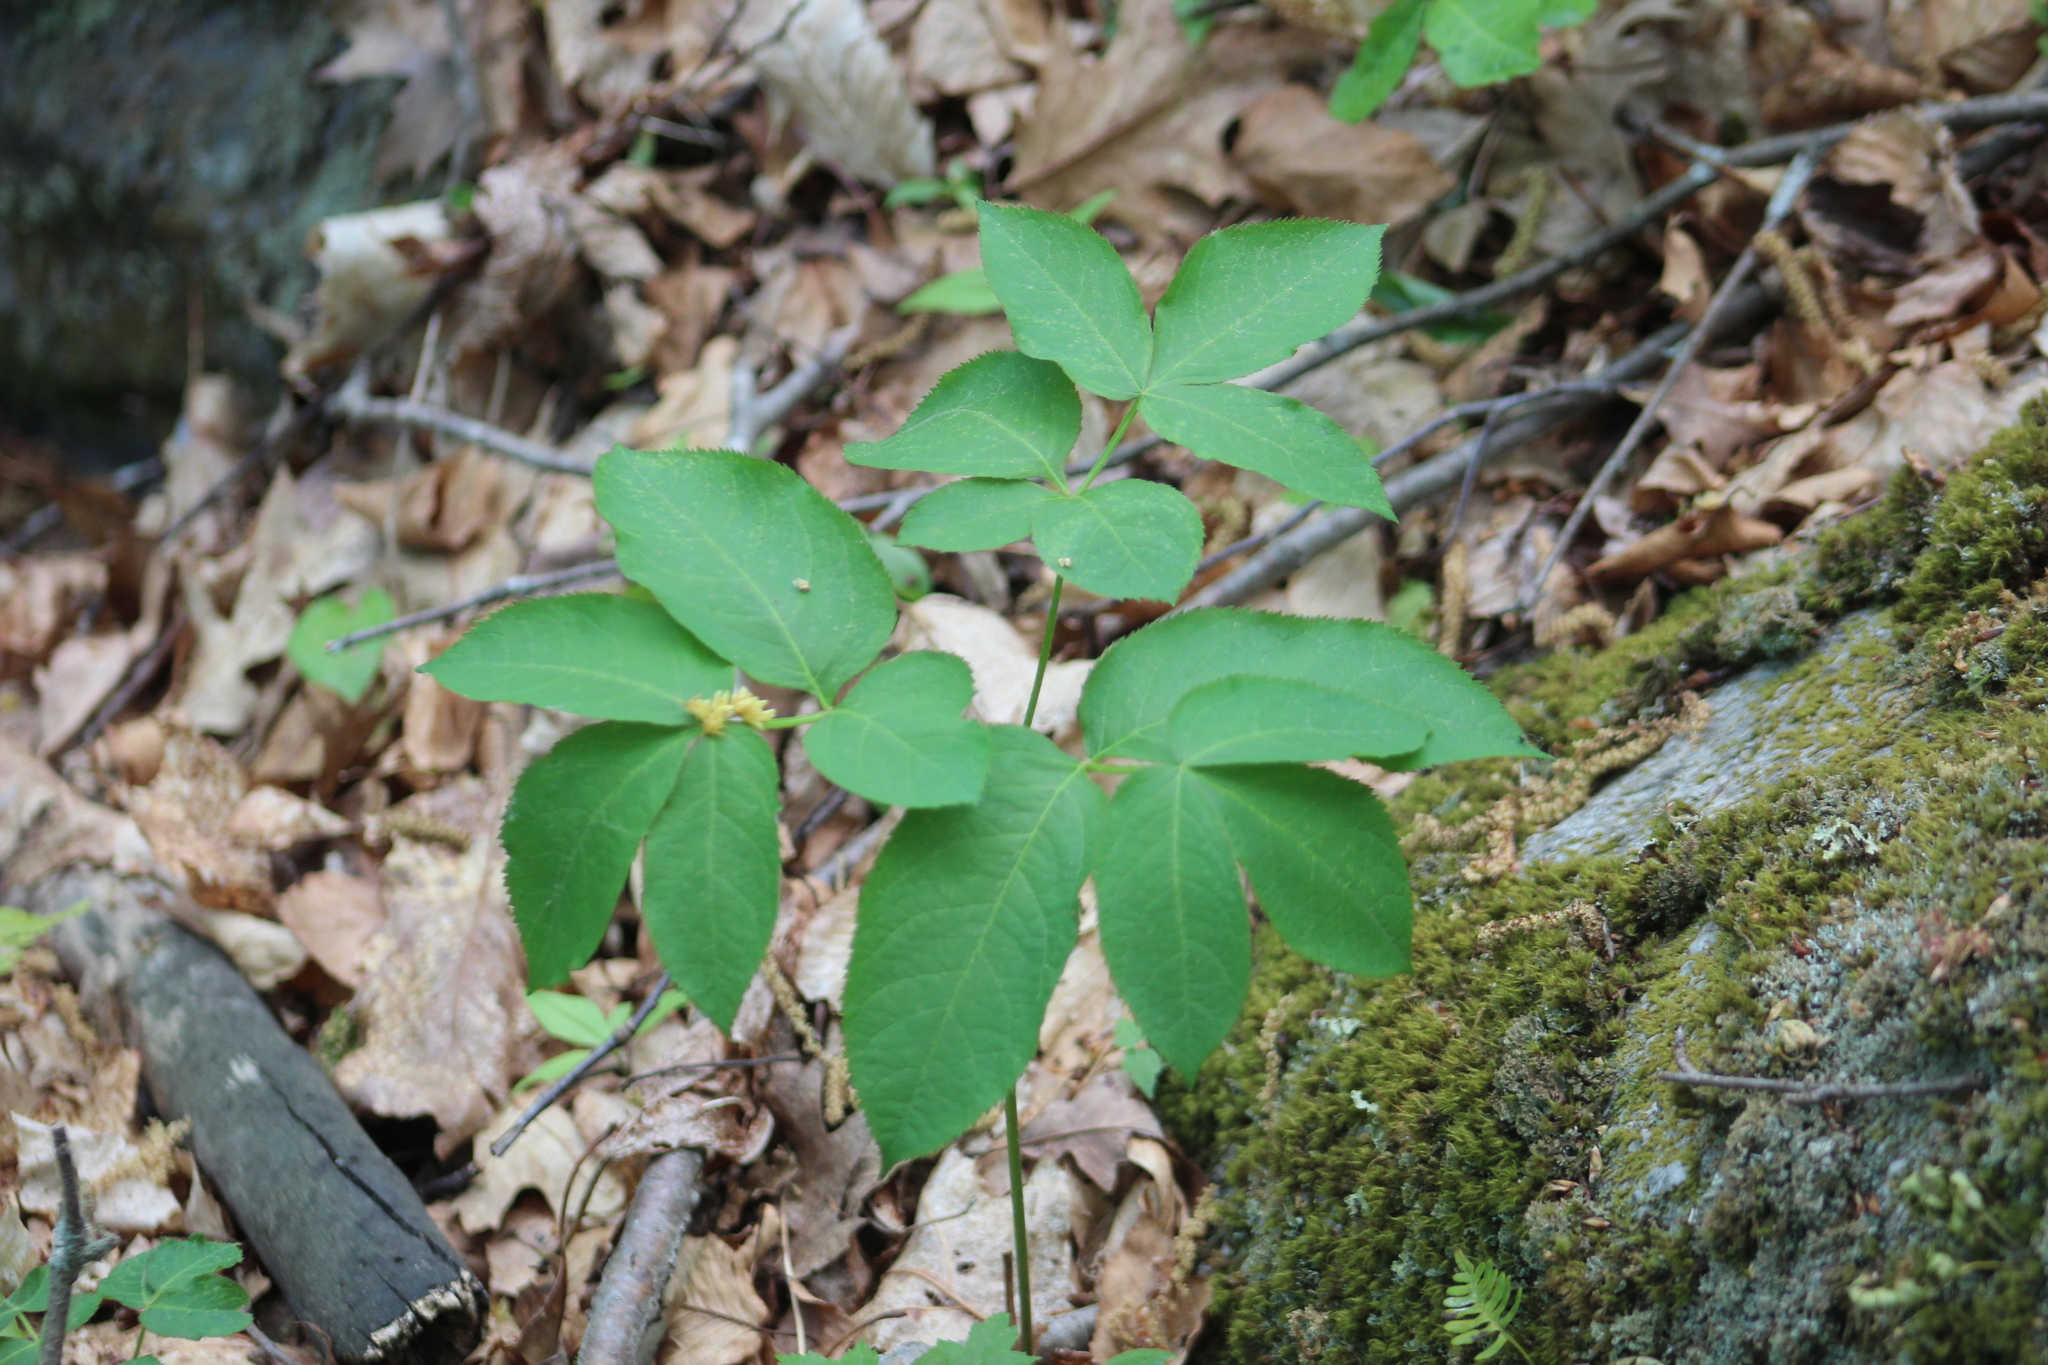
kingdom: Plantae
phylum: Tracheophyta
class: Magnoliopsida
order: Apiales
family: Araliaceae
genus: Aralia
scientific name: Aralia nudicaulis
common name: Wild sarsaparilla
